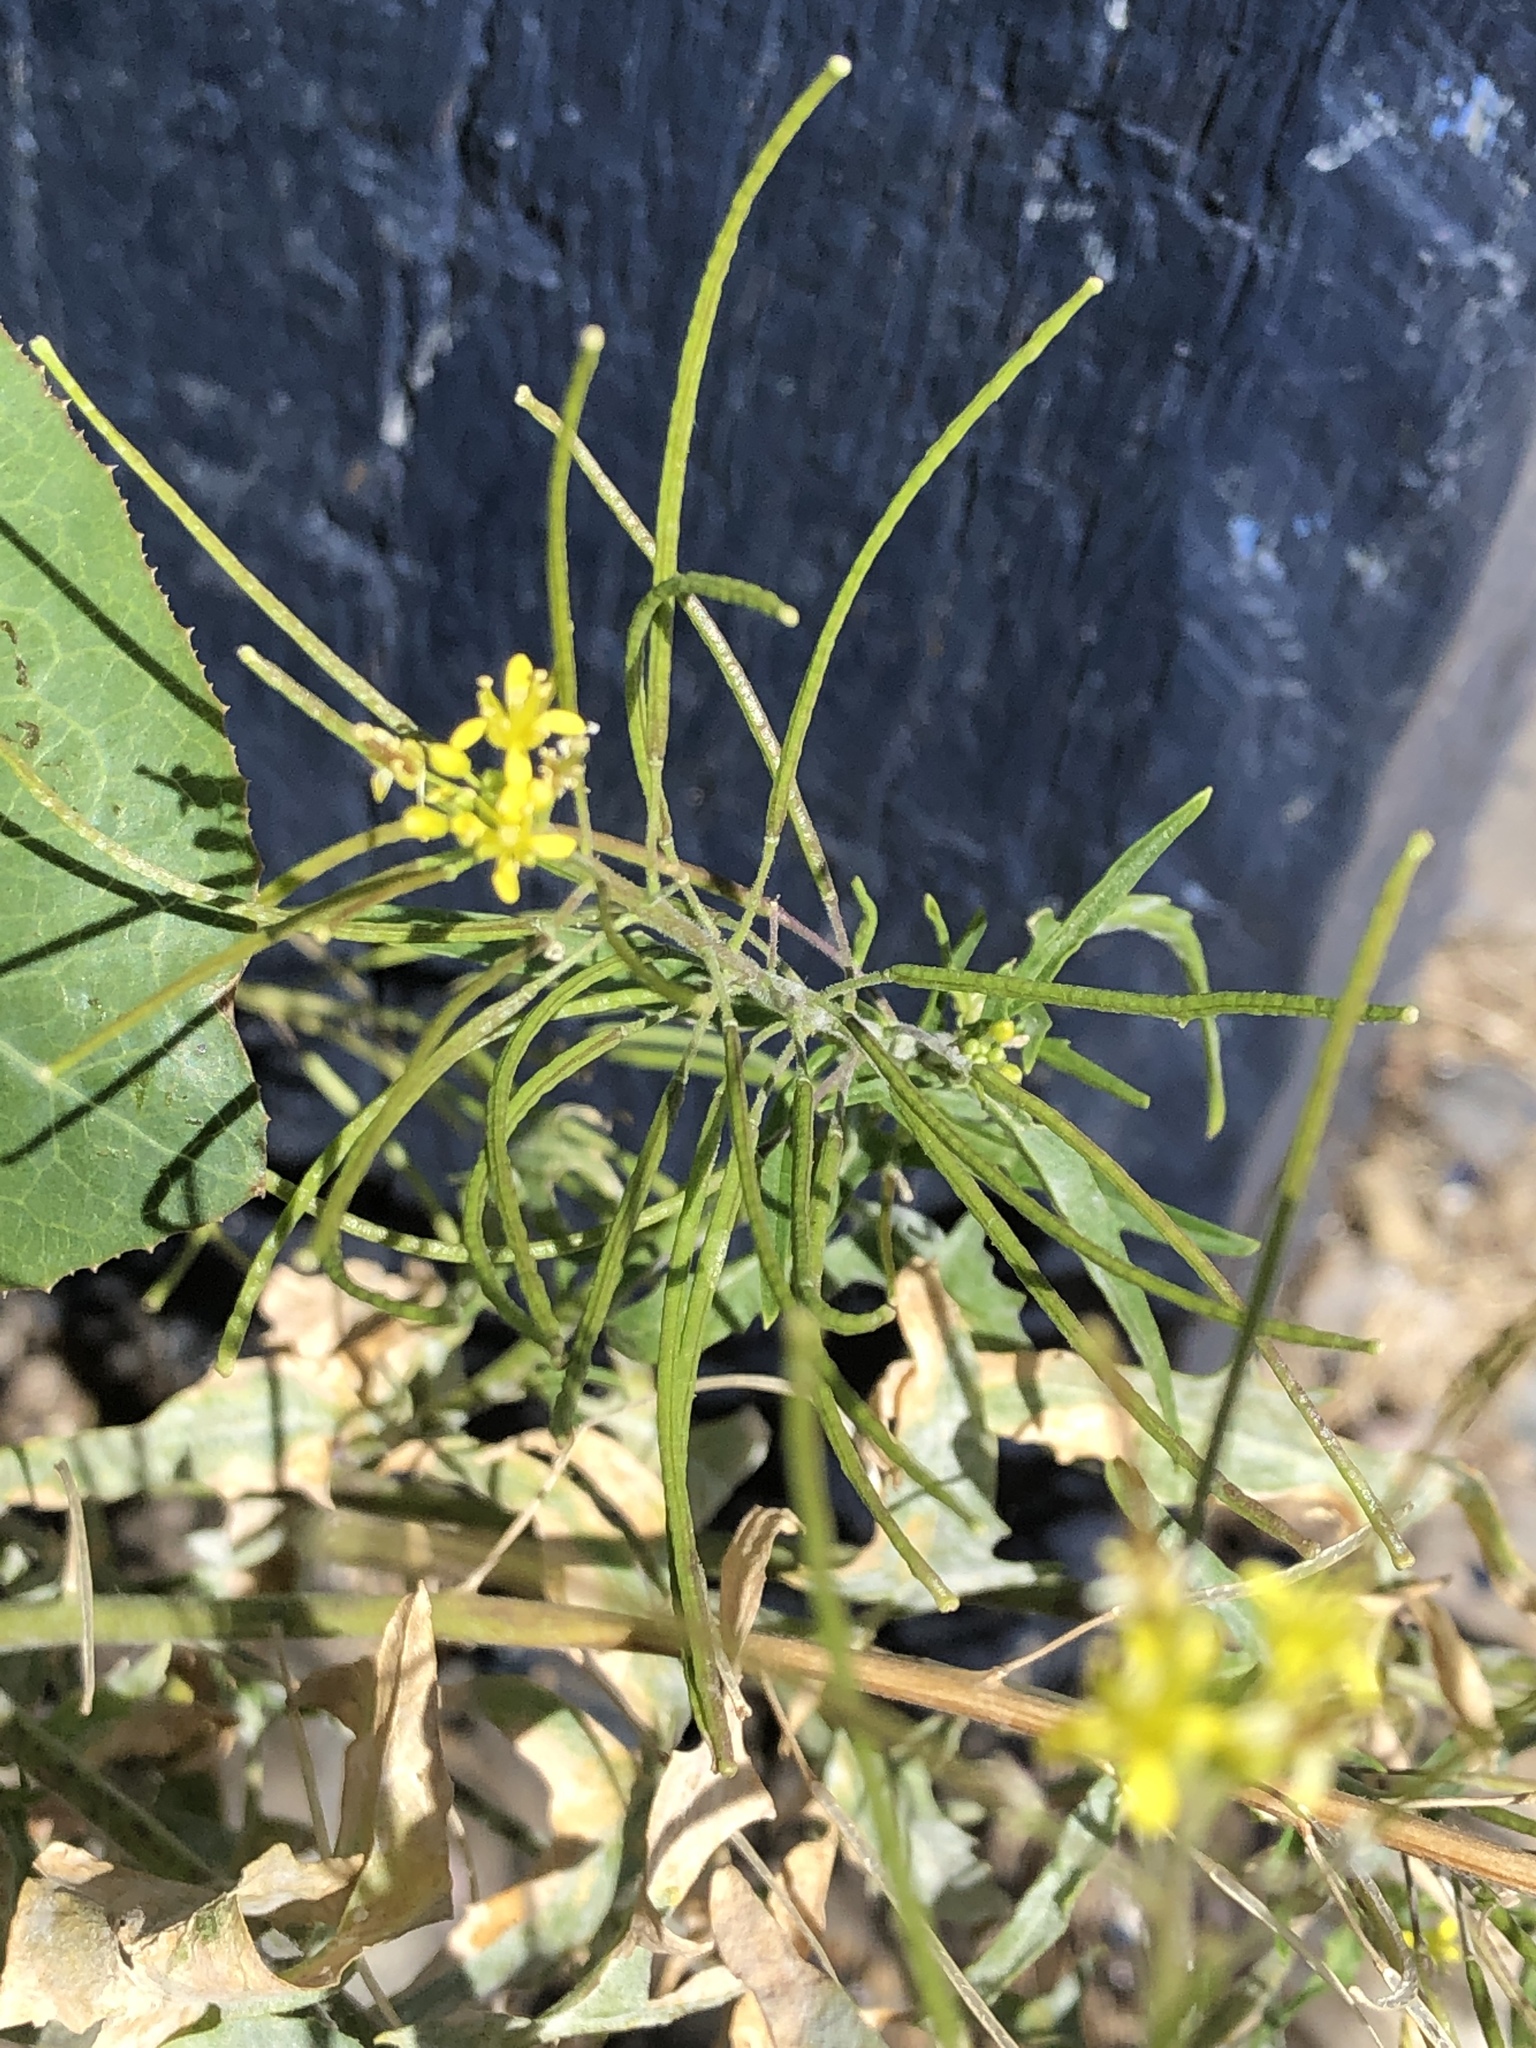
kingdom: Plantae
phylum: Tracheophyta
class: Magnoliopsida
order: Brassicales
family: Brassicaceae
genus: Sisymbrium
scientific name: Sisymbrium irio
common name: London rocket
